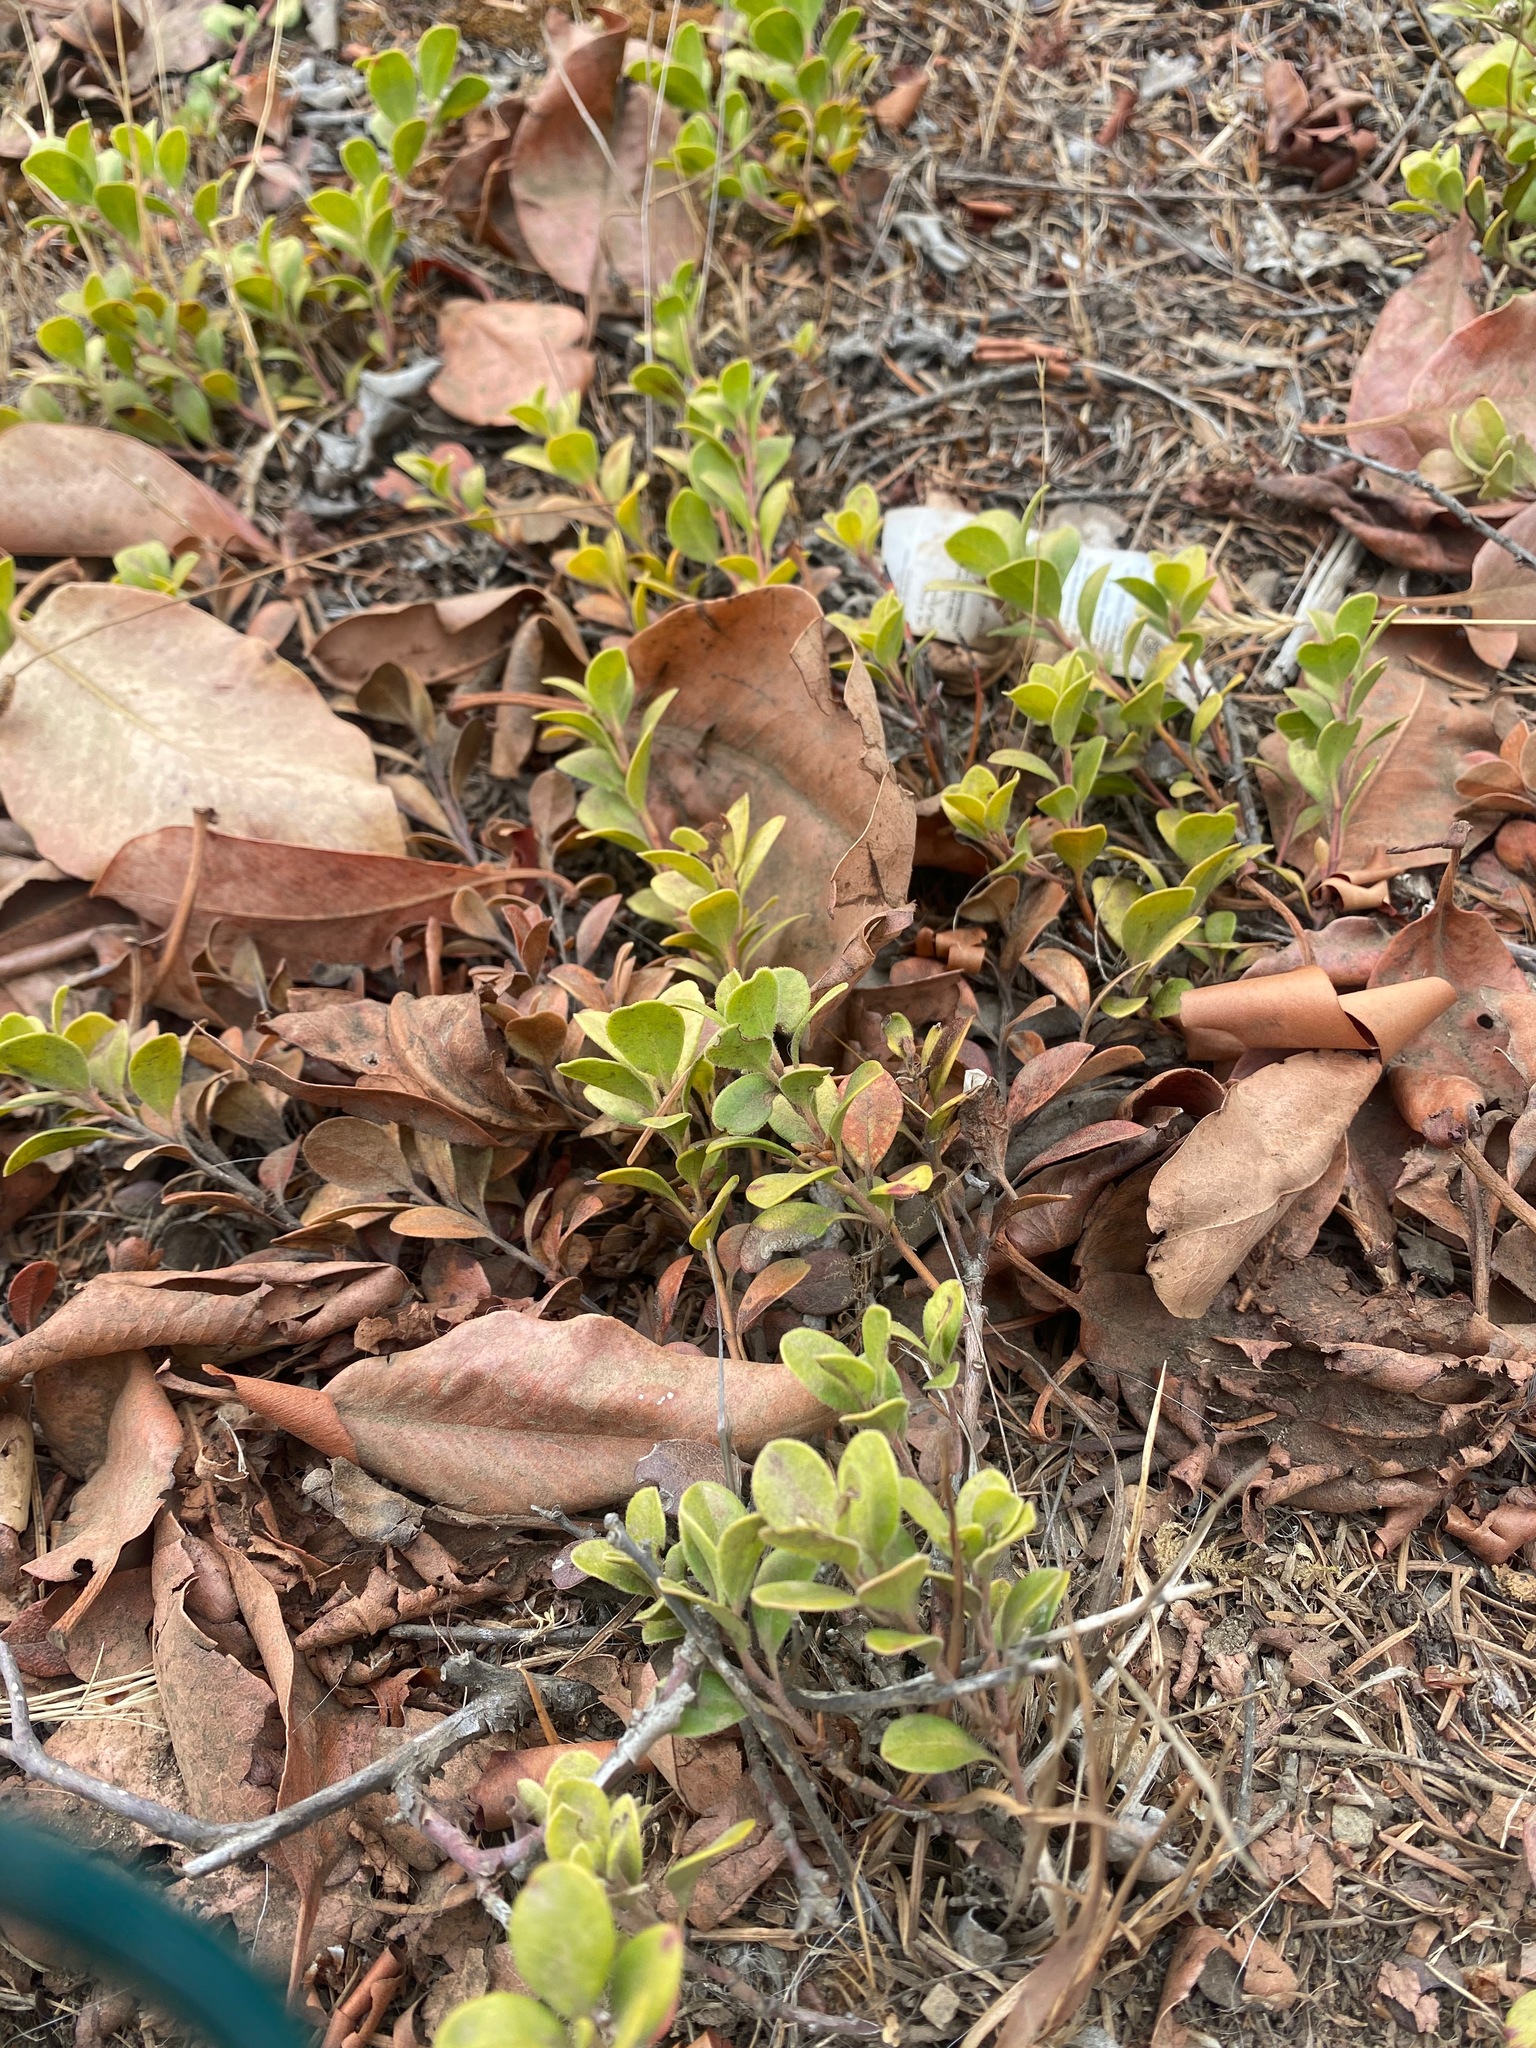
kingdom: Plantae
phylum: Tracheophyta
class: Magnoliopsida
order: Ericales
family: Ericaceae
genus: Arctostaphylos
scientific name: Arctostaphylos uva-ursi
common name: Bearberry
